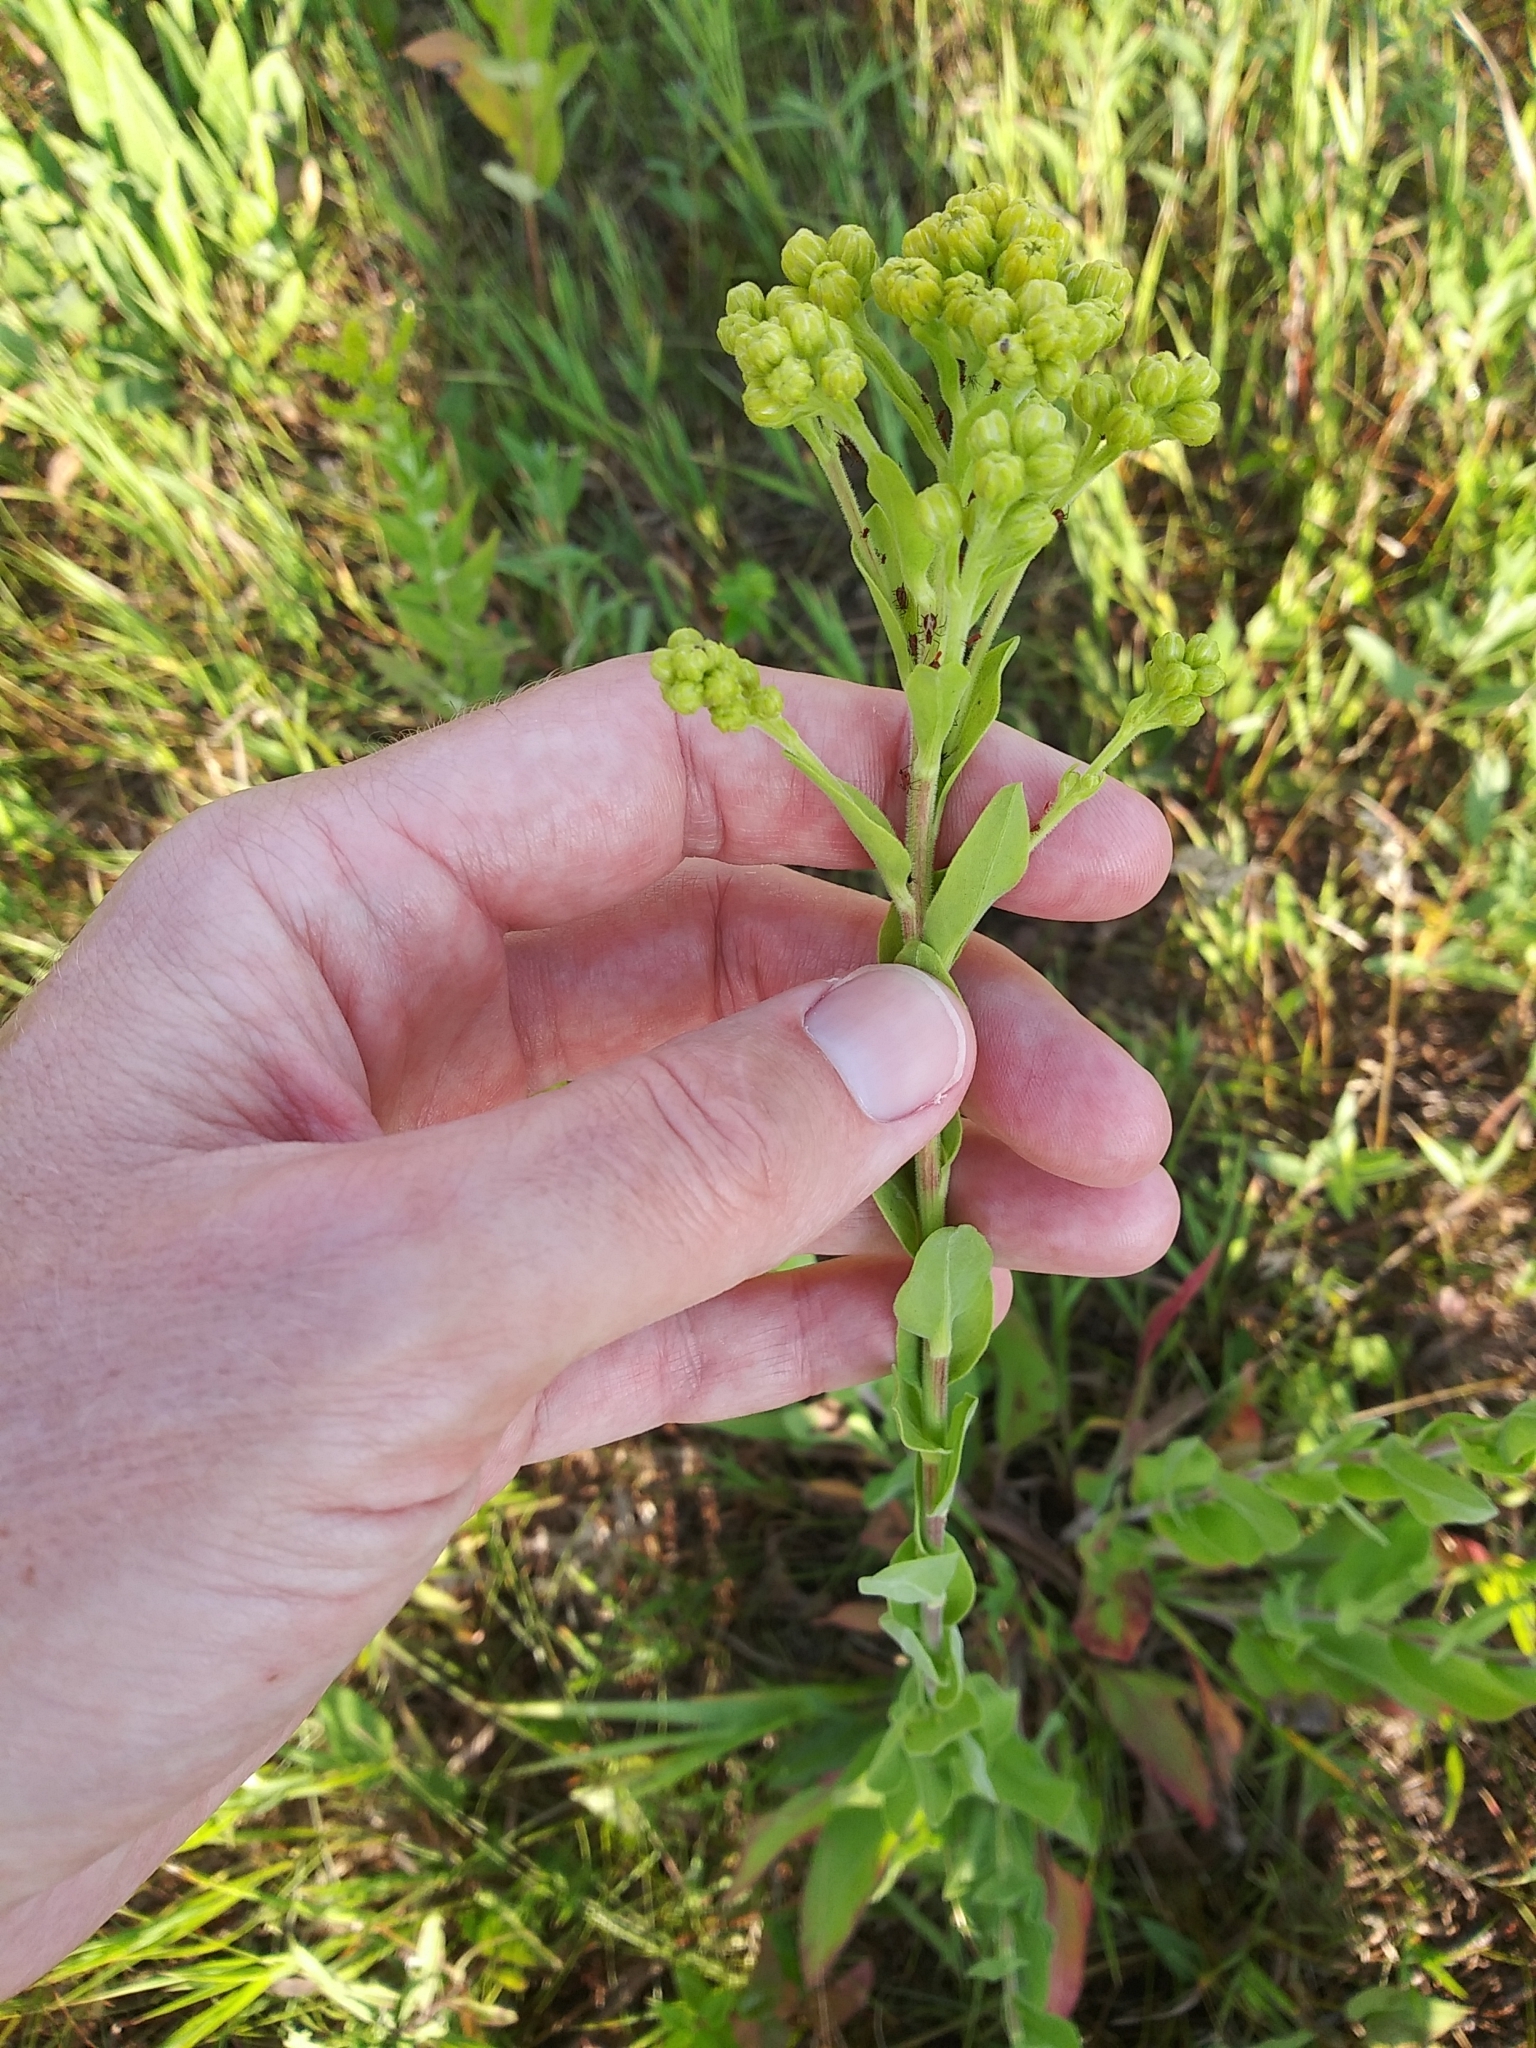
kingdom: Plantae
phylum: Tracheophyta
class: Magnoliopsida
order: Asterales
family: Asteraceae
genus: Solidago
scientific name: Solidago rigida
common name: Rigid goldenrod
